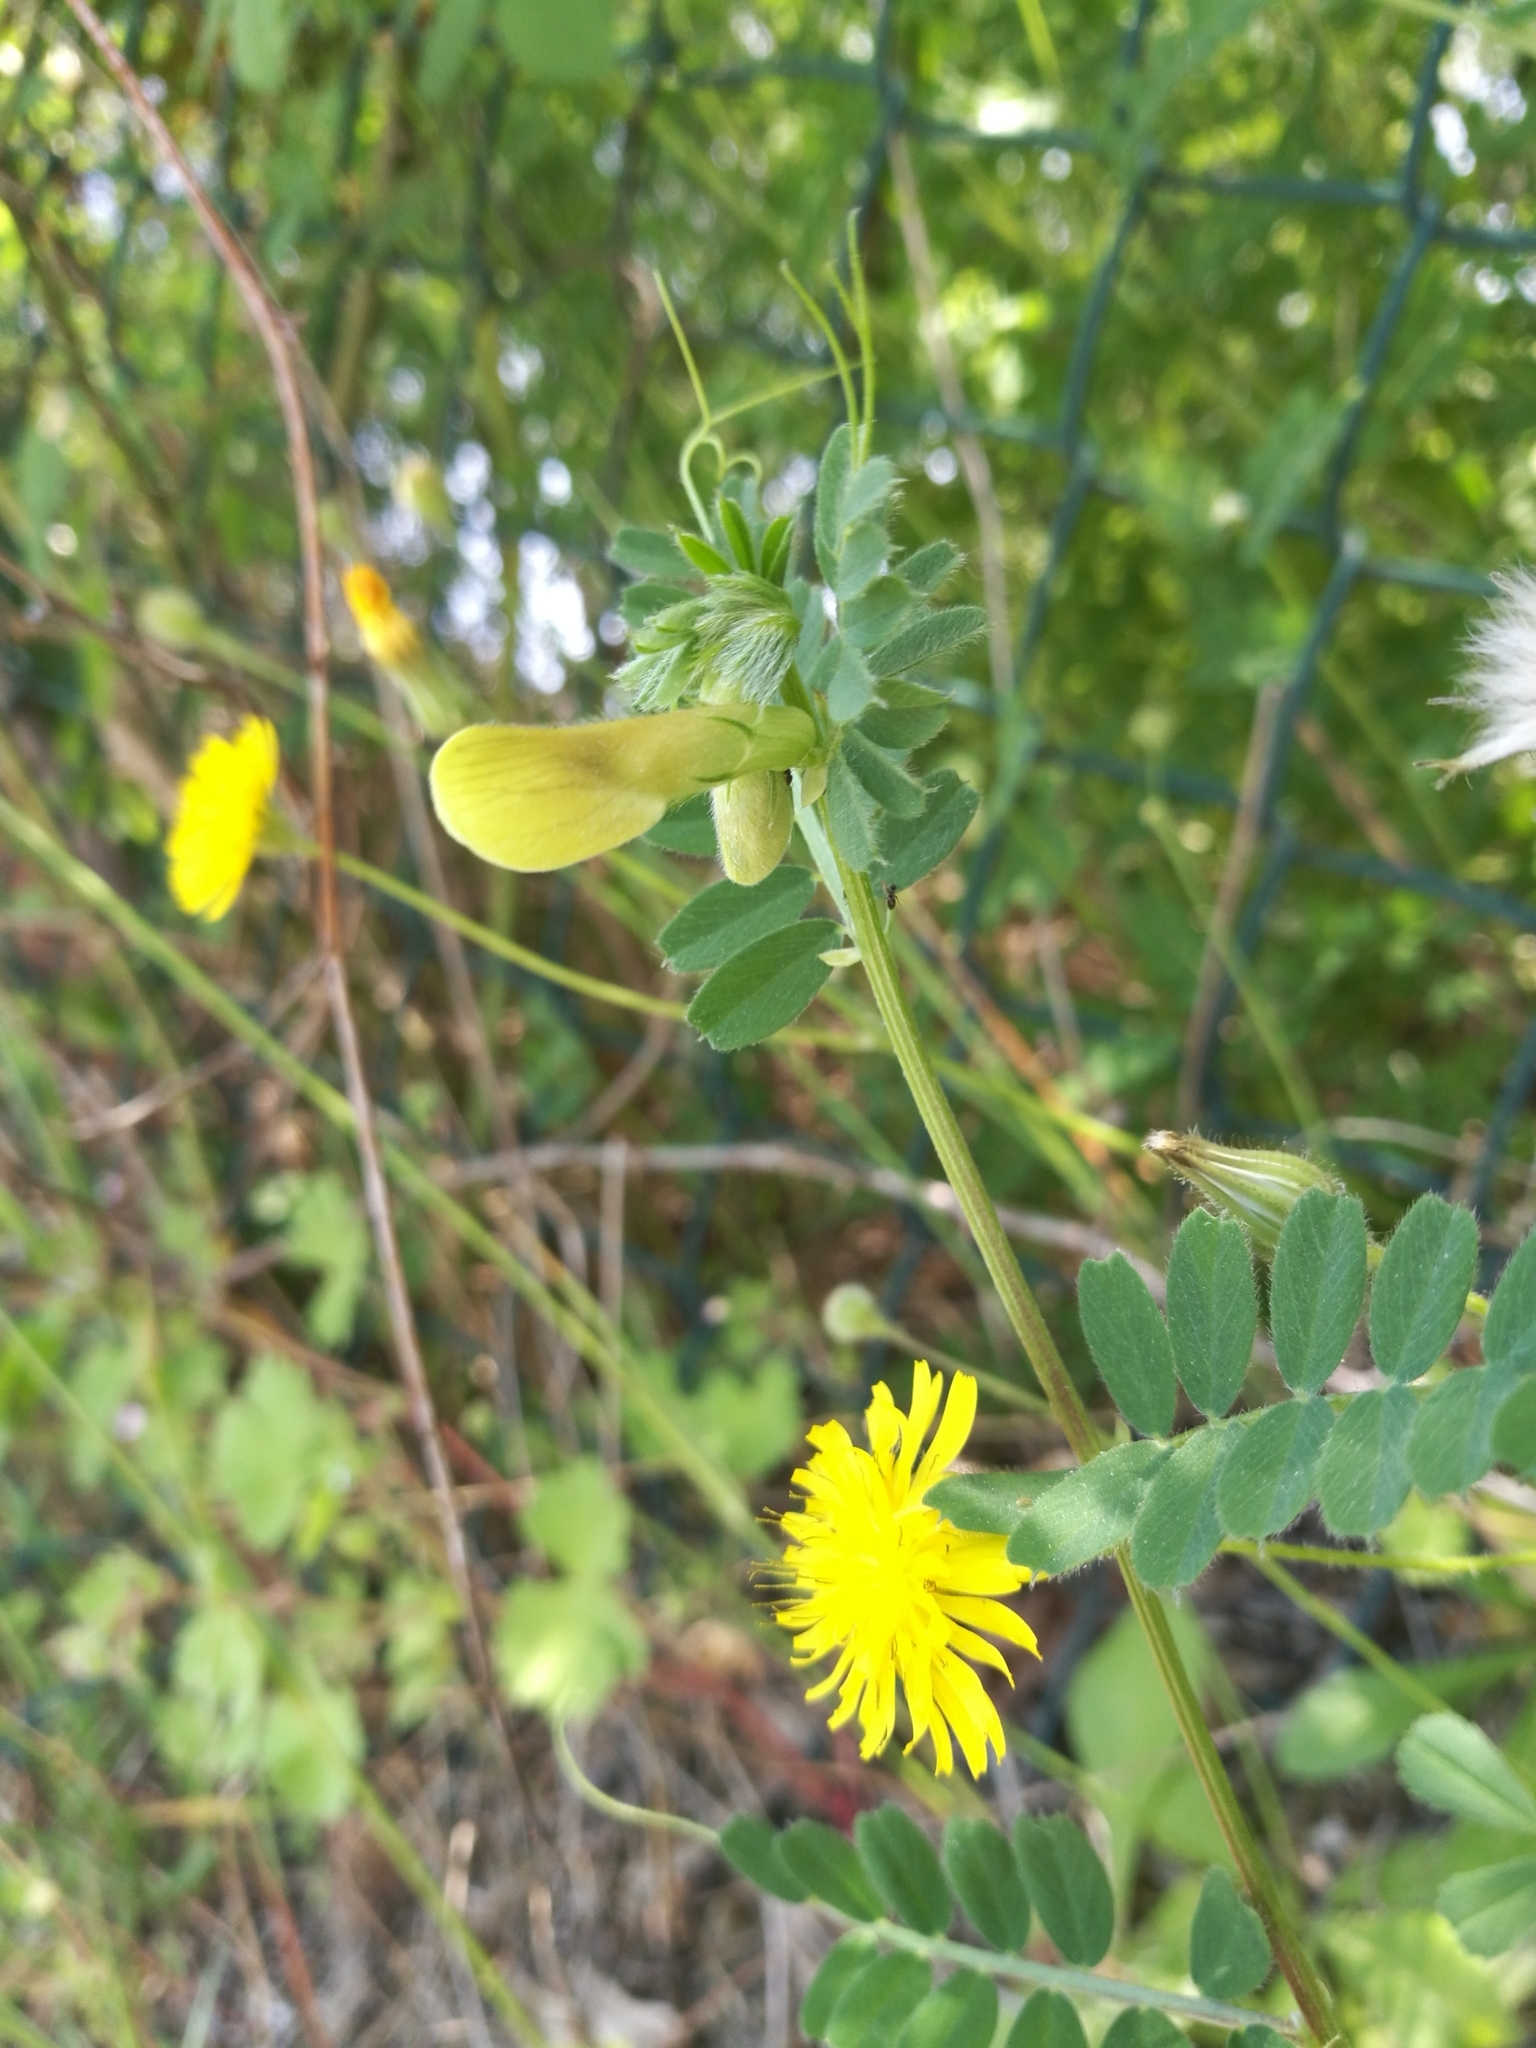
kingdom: Plantae
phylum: Tracheophyta
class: Magnoliopsida
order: Fabales
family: Fabaceae
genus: Vicia
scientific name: Vicia hybrida
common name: Hairy yellow vetch
